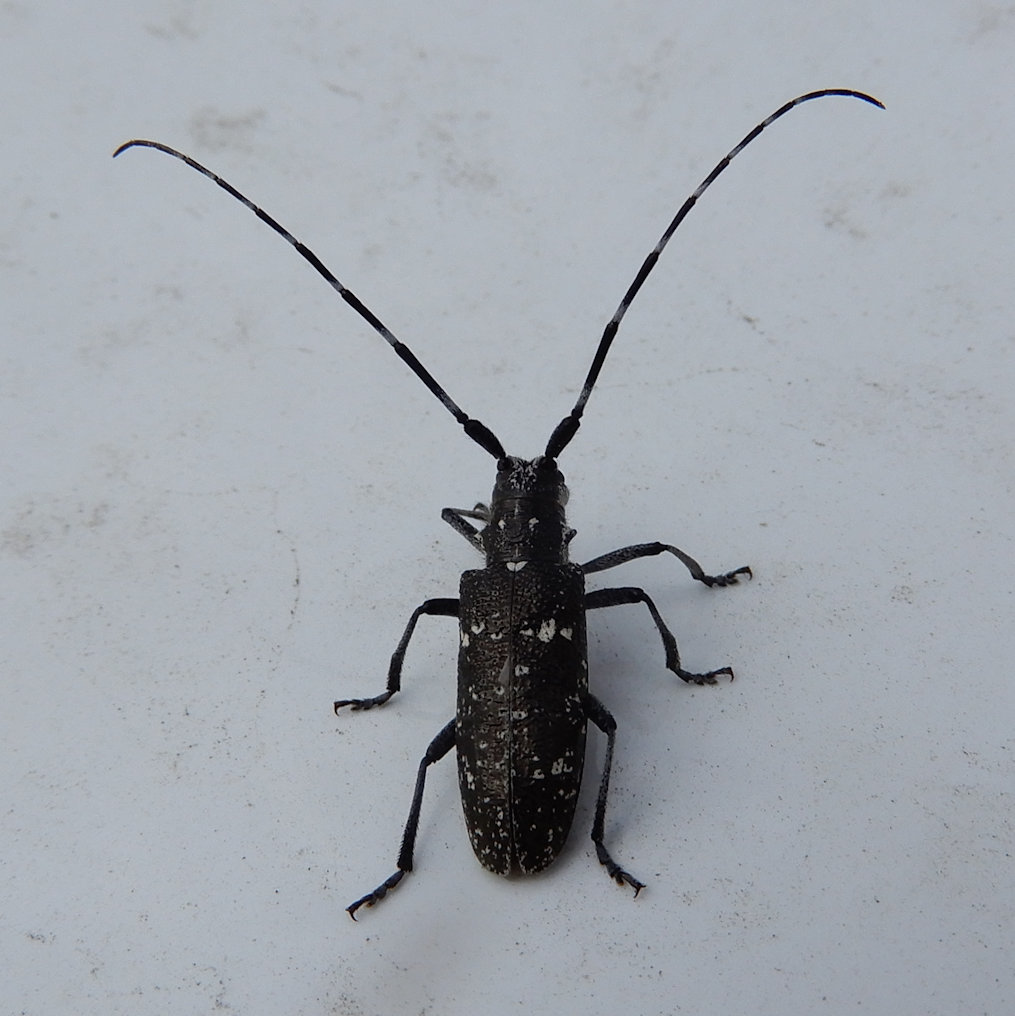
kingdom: Animalia
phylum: Arthropoda
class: Insecta
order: Coleoptera
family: Cerambycidae
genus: Monochamus
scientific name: Monochamus scutellatus
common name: White-spotted sawyer beetle
